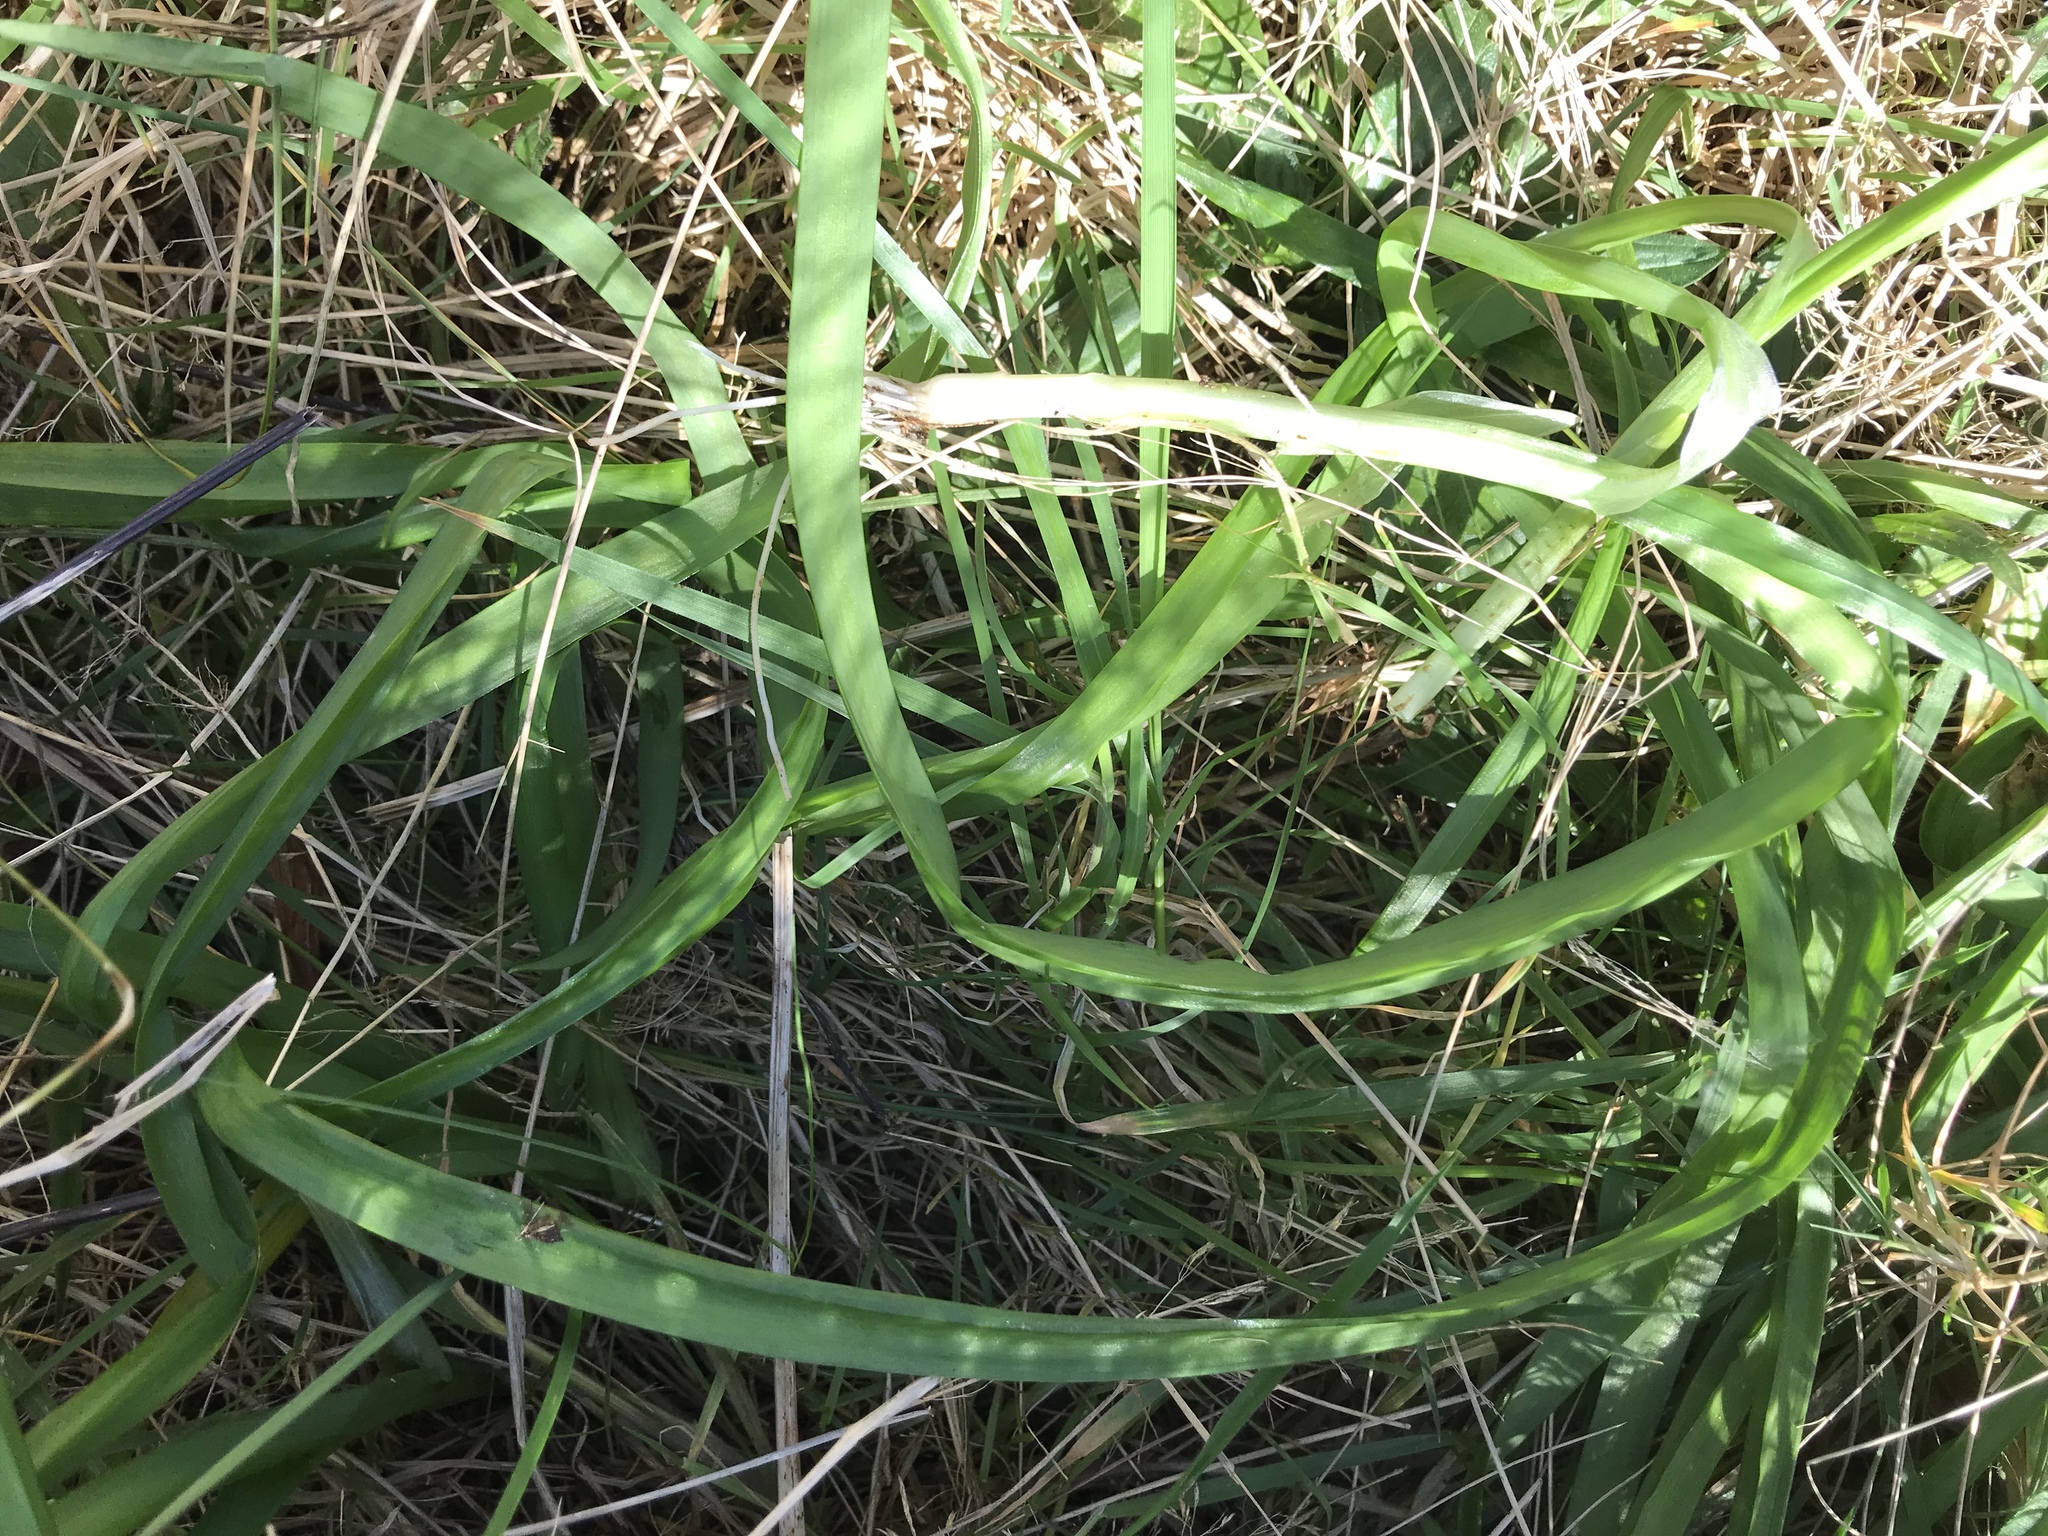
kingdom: Plantae
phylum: Tracheophyta
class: Liliopsida
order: Asparagales
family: Amaryllidaceae
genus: Allium
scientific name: Allium triquetrum
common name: Three-cornered garlic
